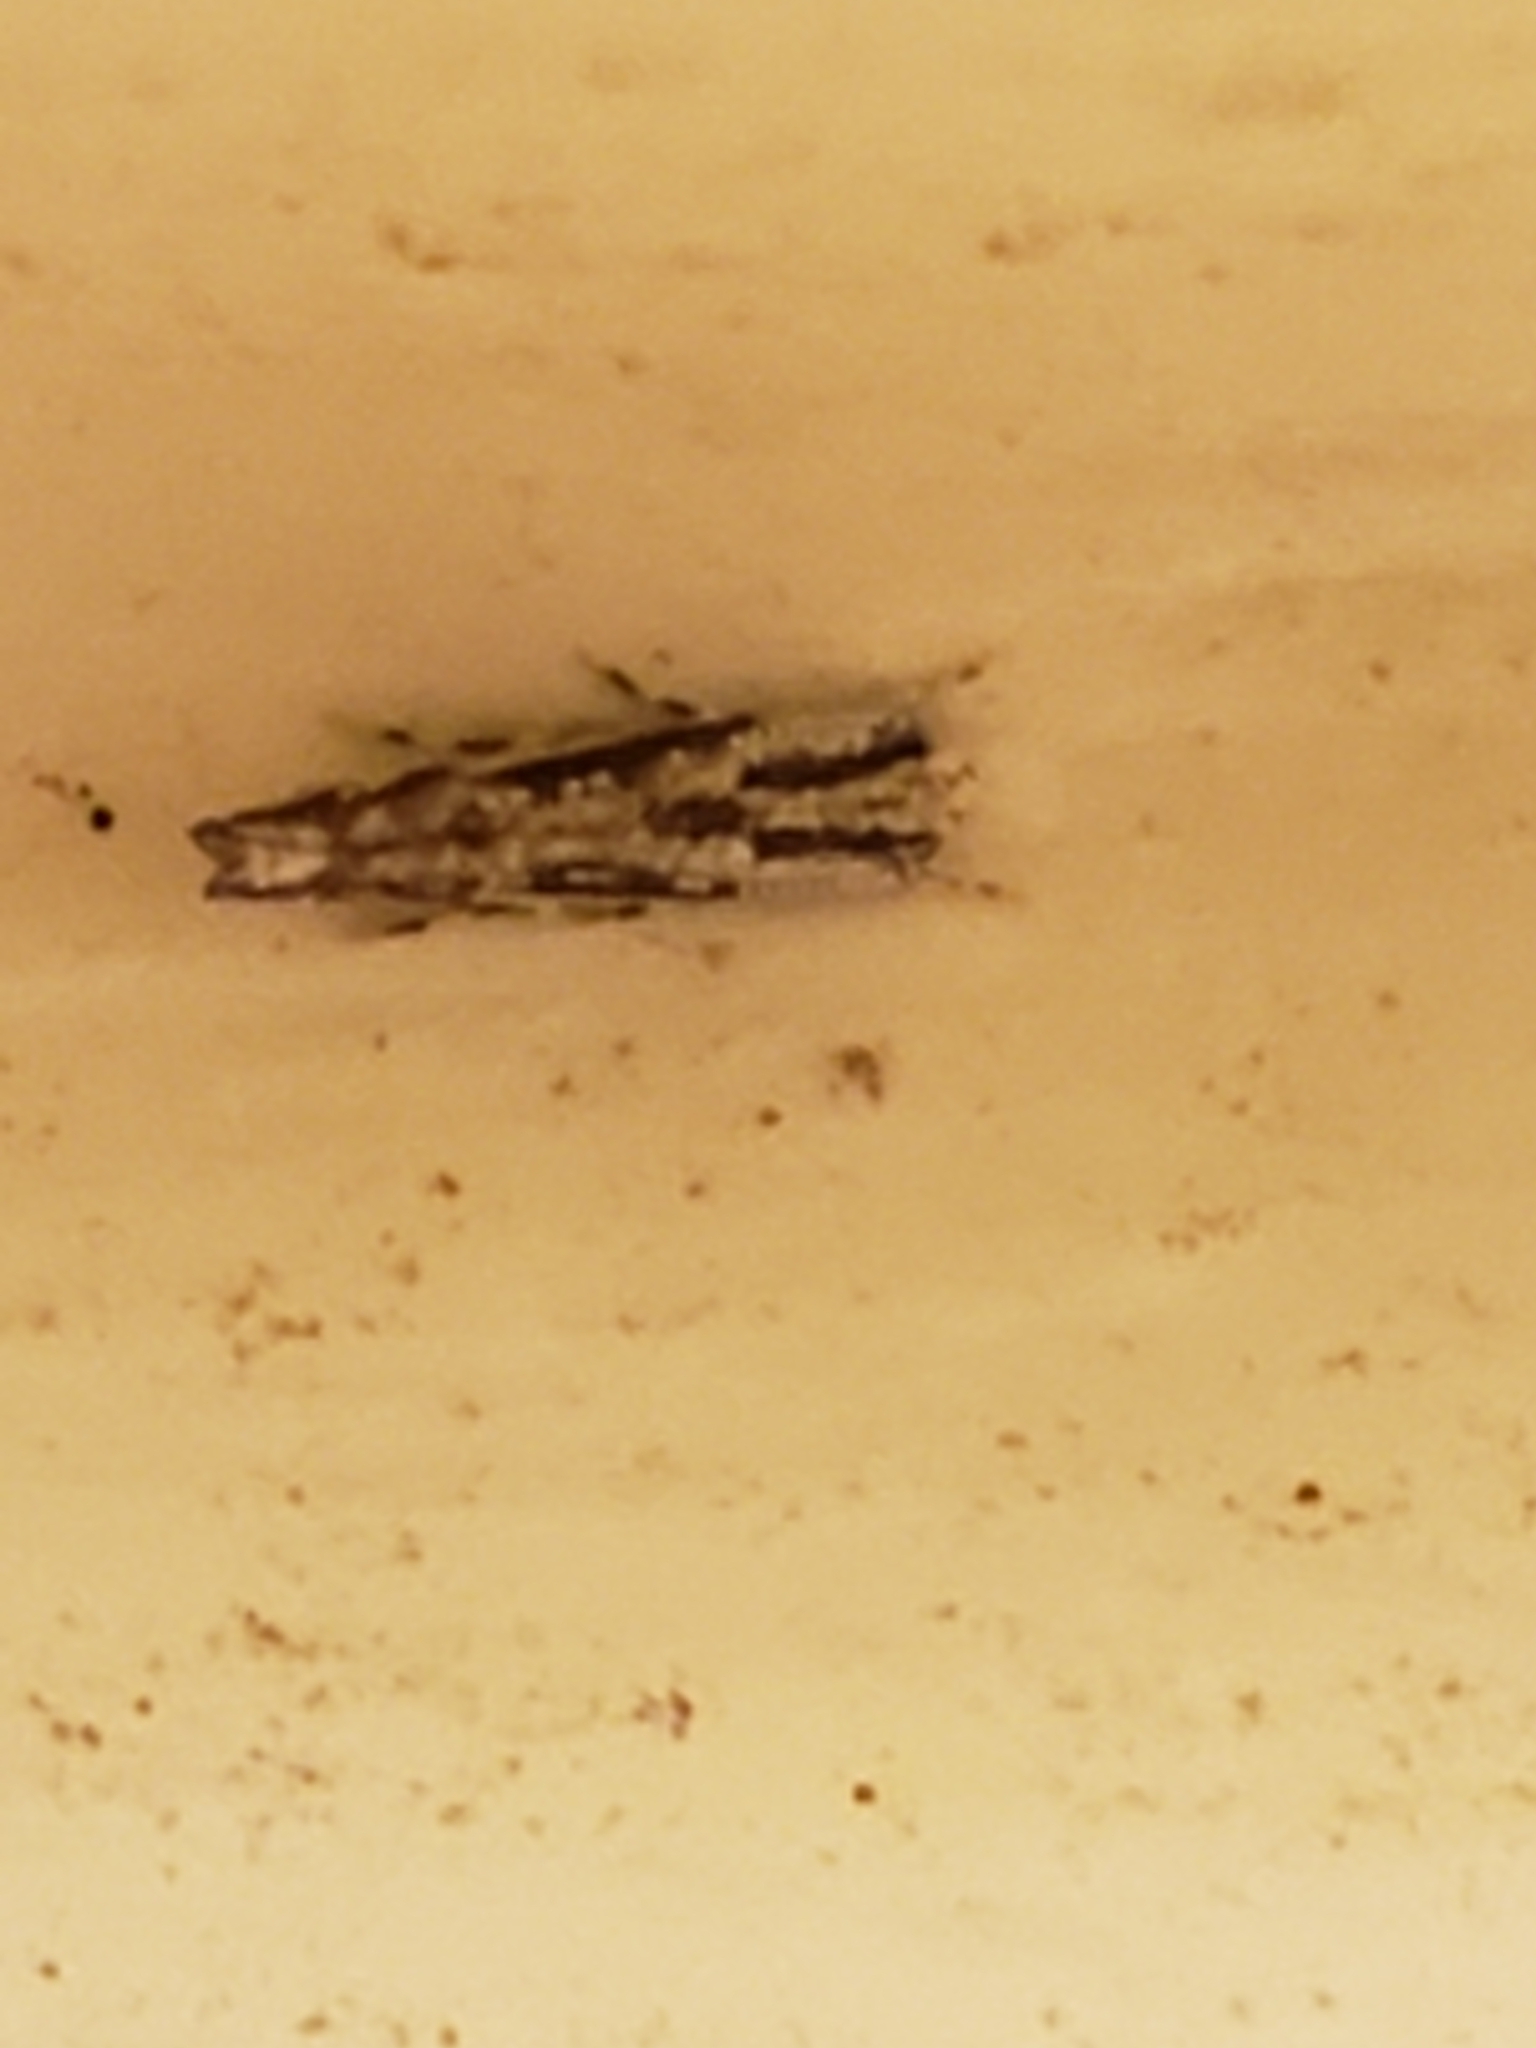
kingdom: Animalia
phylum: Arthropoda
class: Insecta
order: Lepidoptera
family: Cosmopterigidae
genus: Melanocinclis
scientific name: Melanocinclis lineigera
